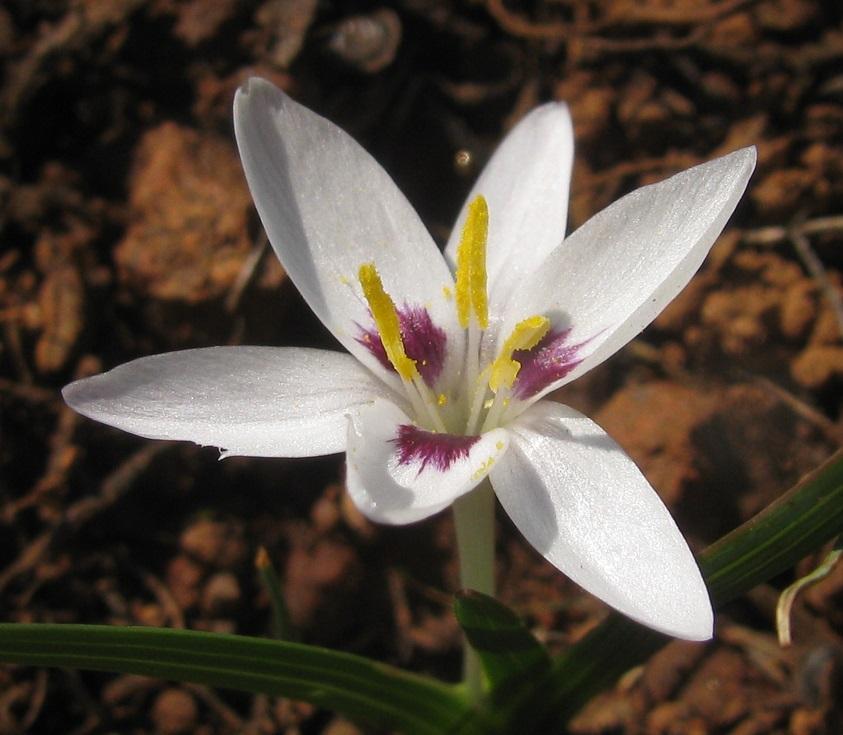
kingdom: Plantae
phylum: Tracheophyta
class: Liliopsida
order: Asparagales
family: Iridaceae
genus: Hesperantha
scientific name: Hesperantha luticola
